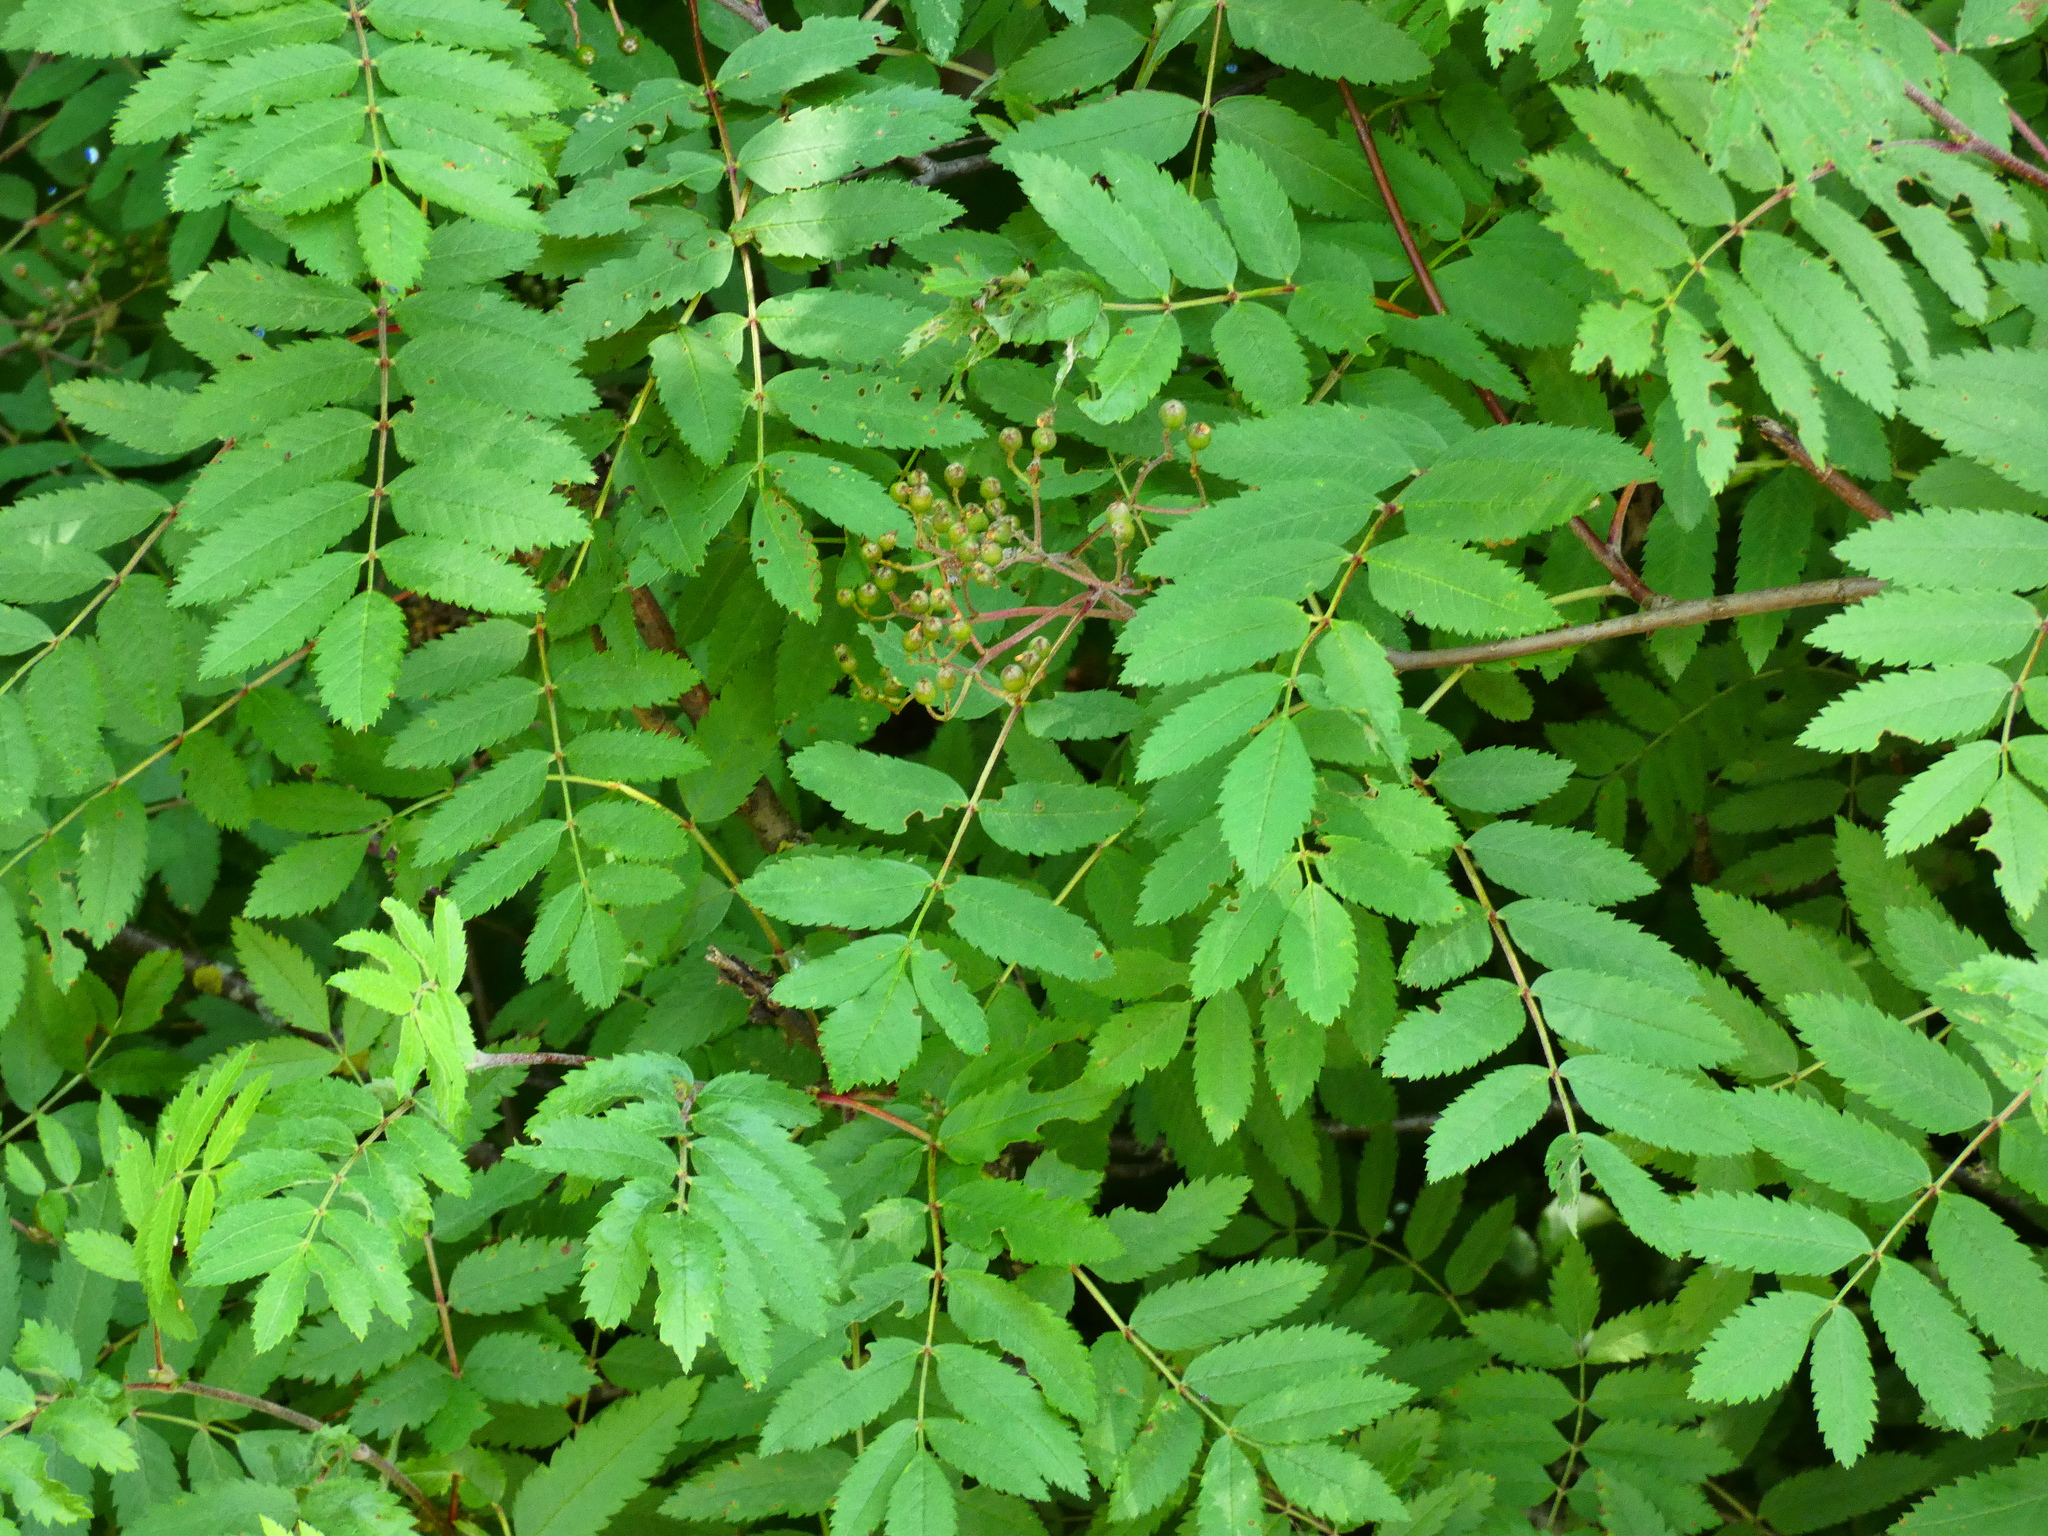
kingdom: Plantae
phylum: Tracheophyta
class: Magnoliopsida
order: Rosales
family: Rosaceae
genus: Sorbus
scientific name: Sorbus aucuparia
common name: Rowan
